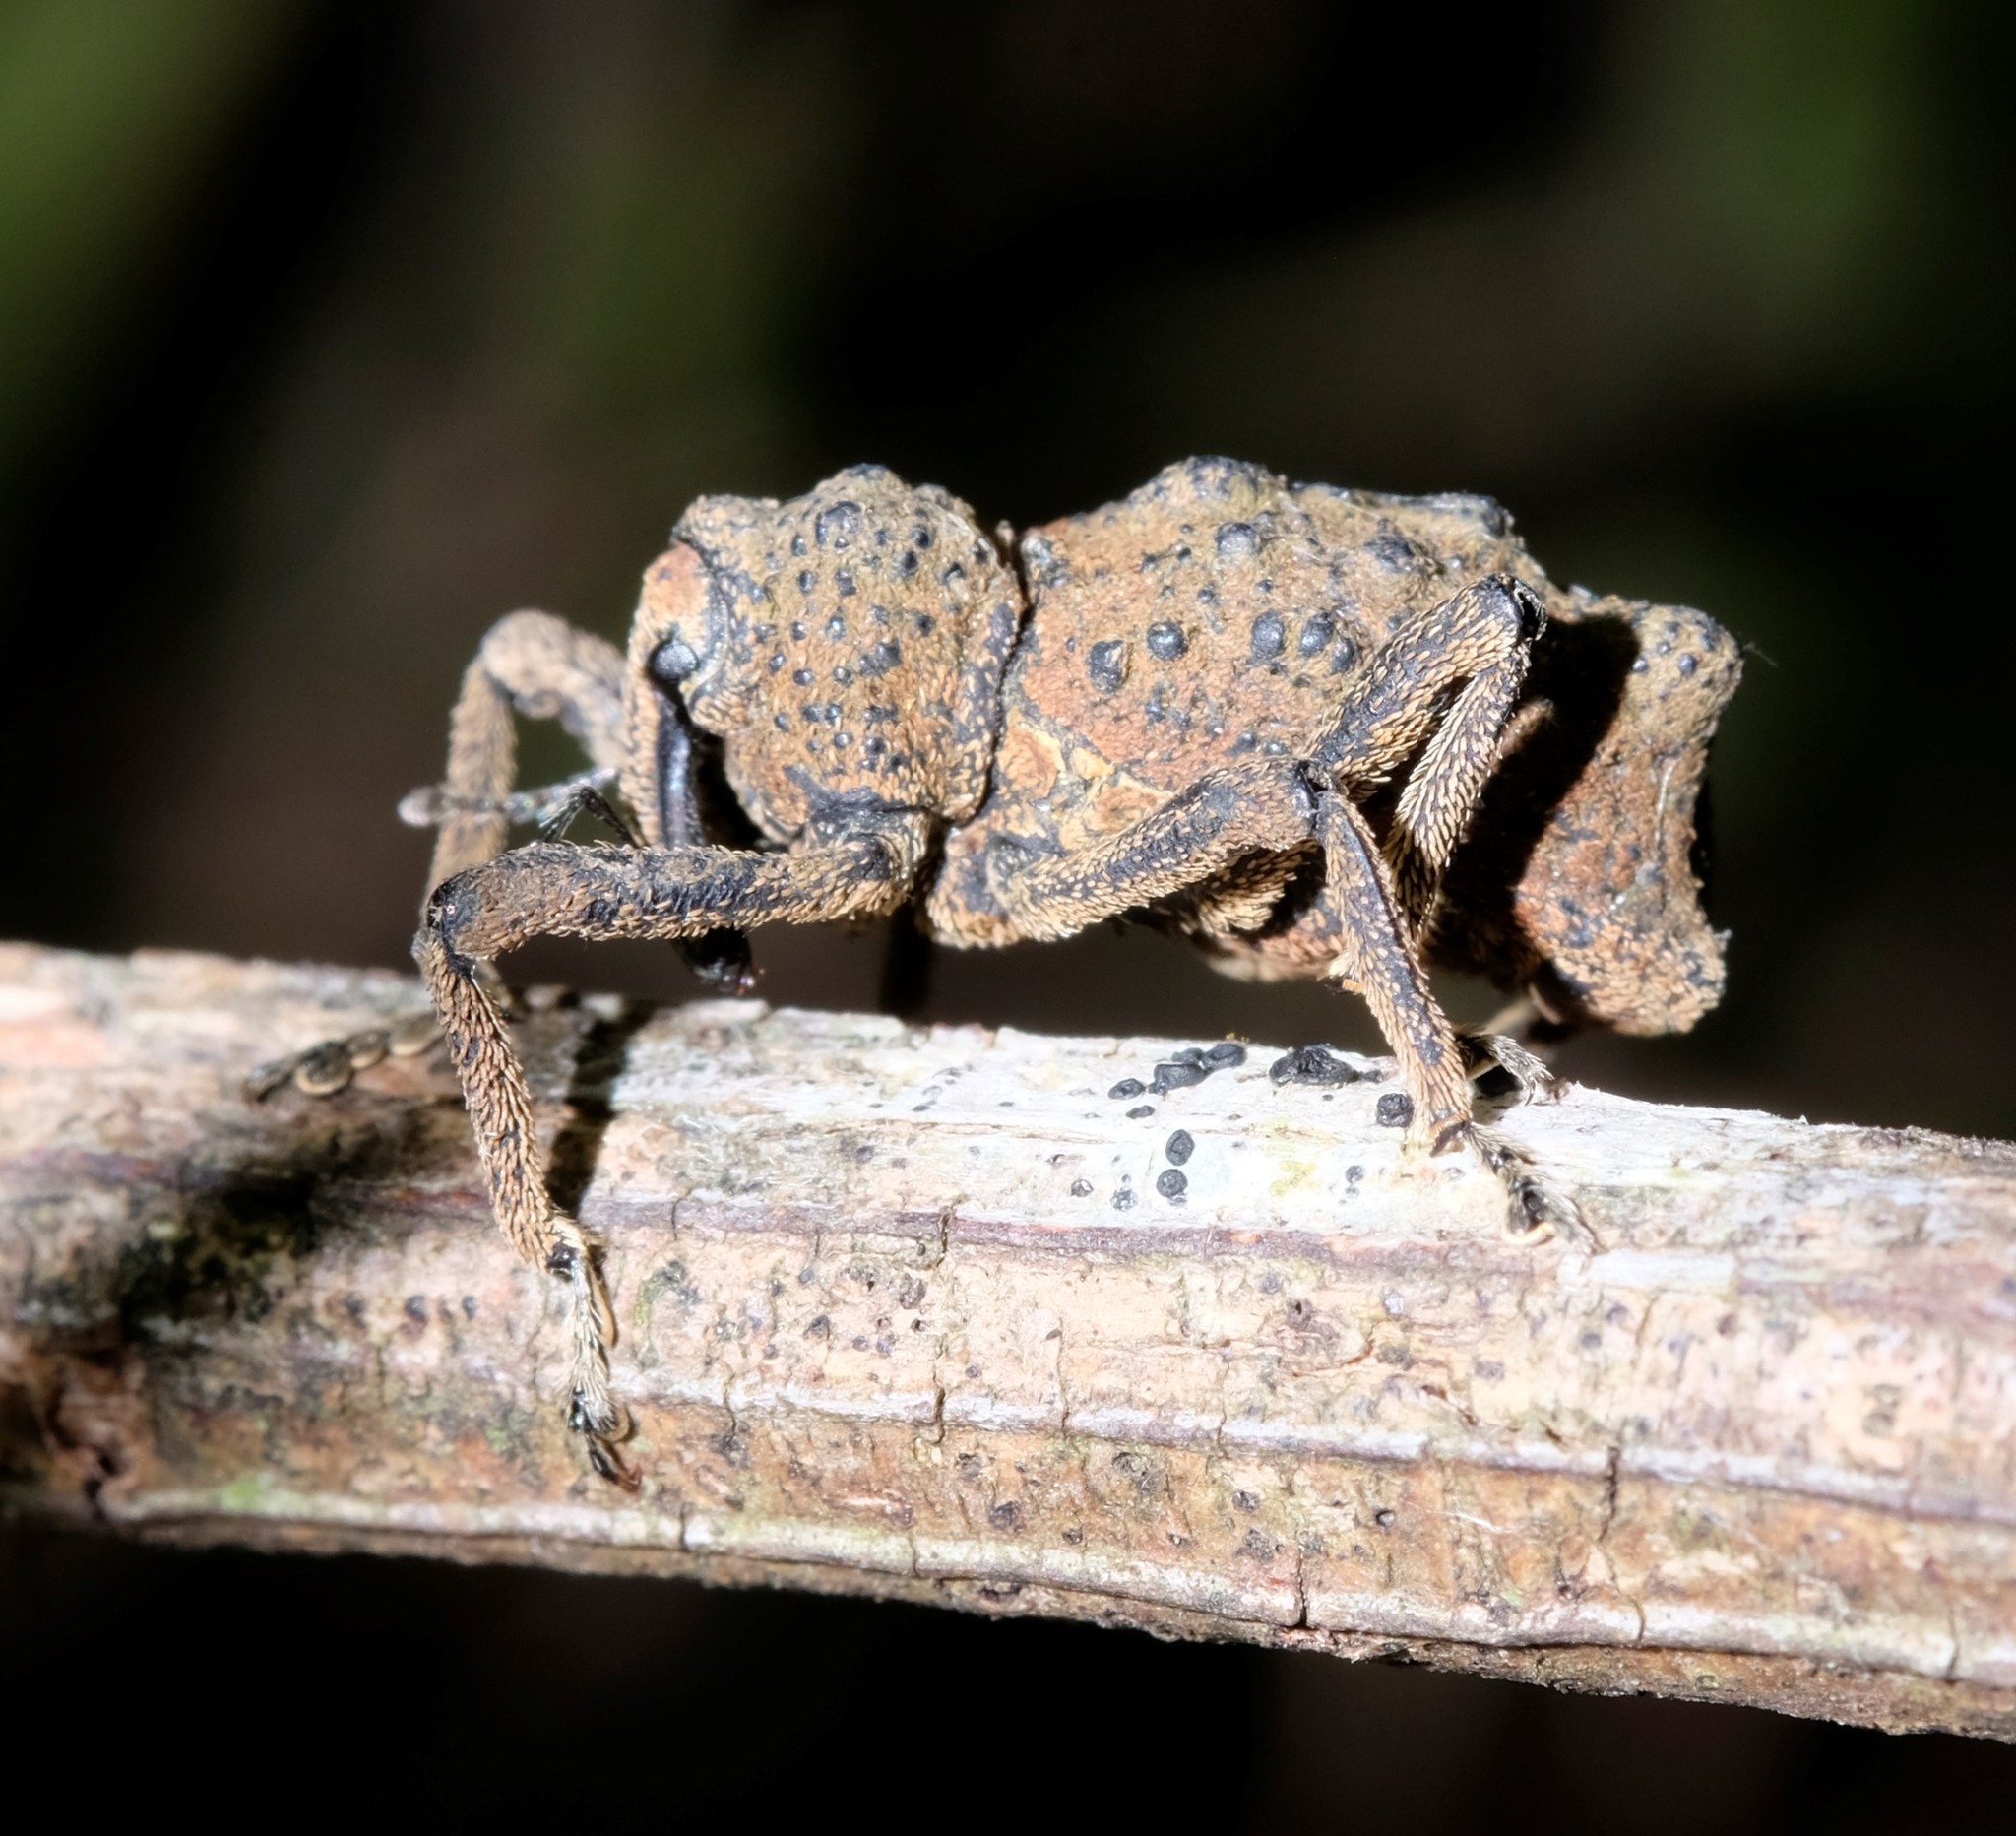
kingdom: Animalia
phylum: Arthropoda
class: Insecta
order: Coleoptera
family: Curculionidae
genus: Poropterus
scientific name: Poropterus simsoni
